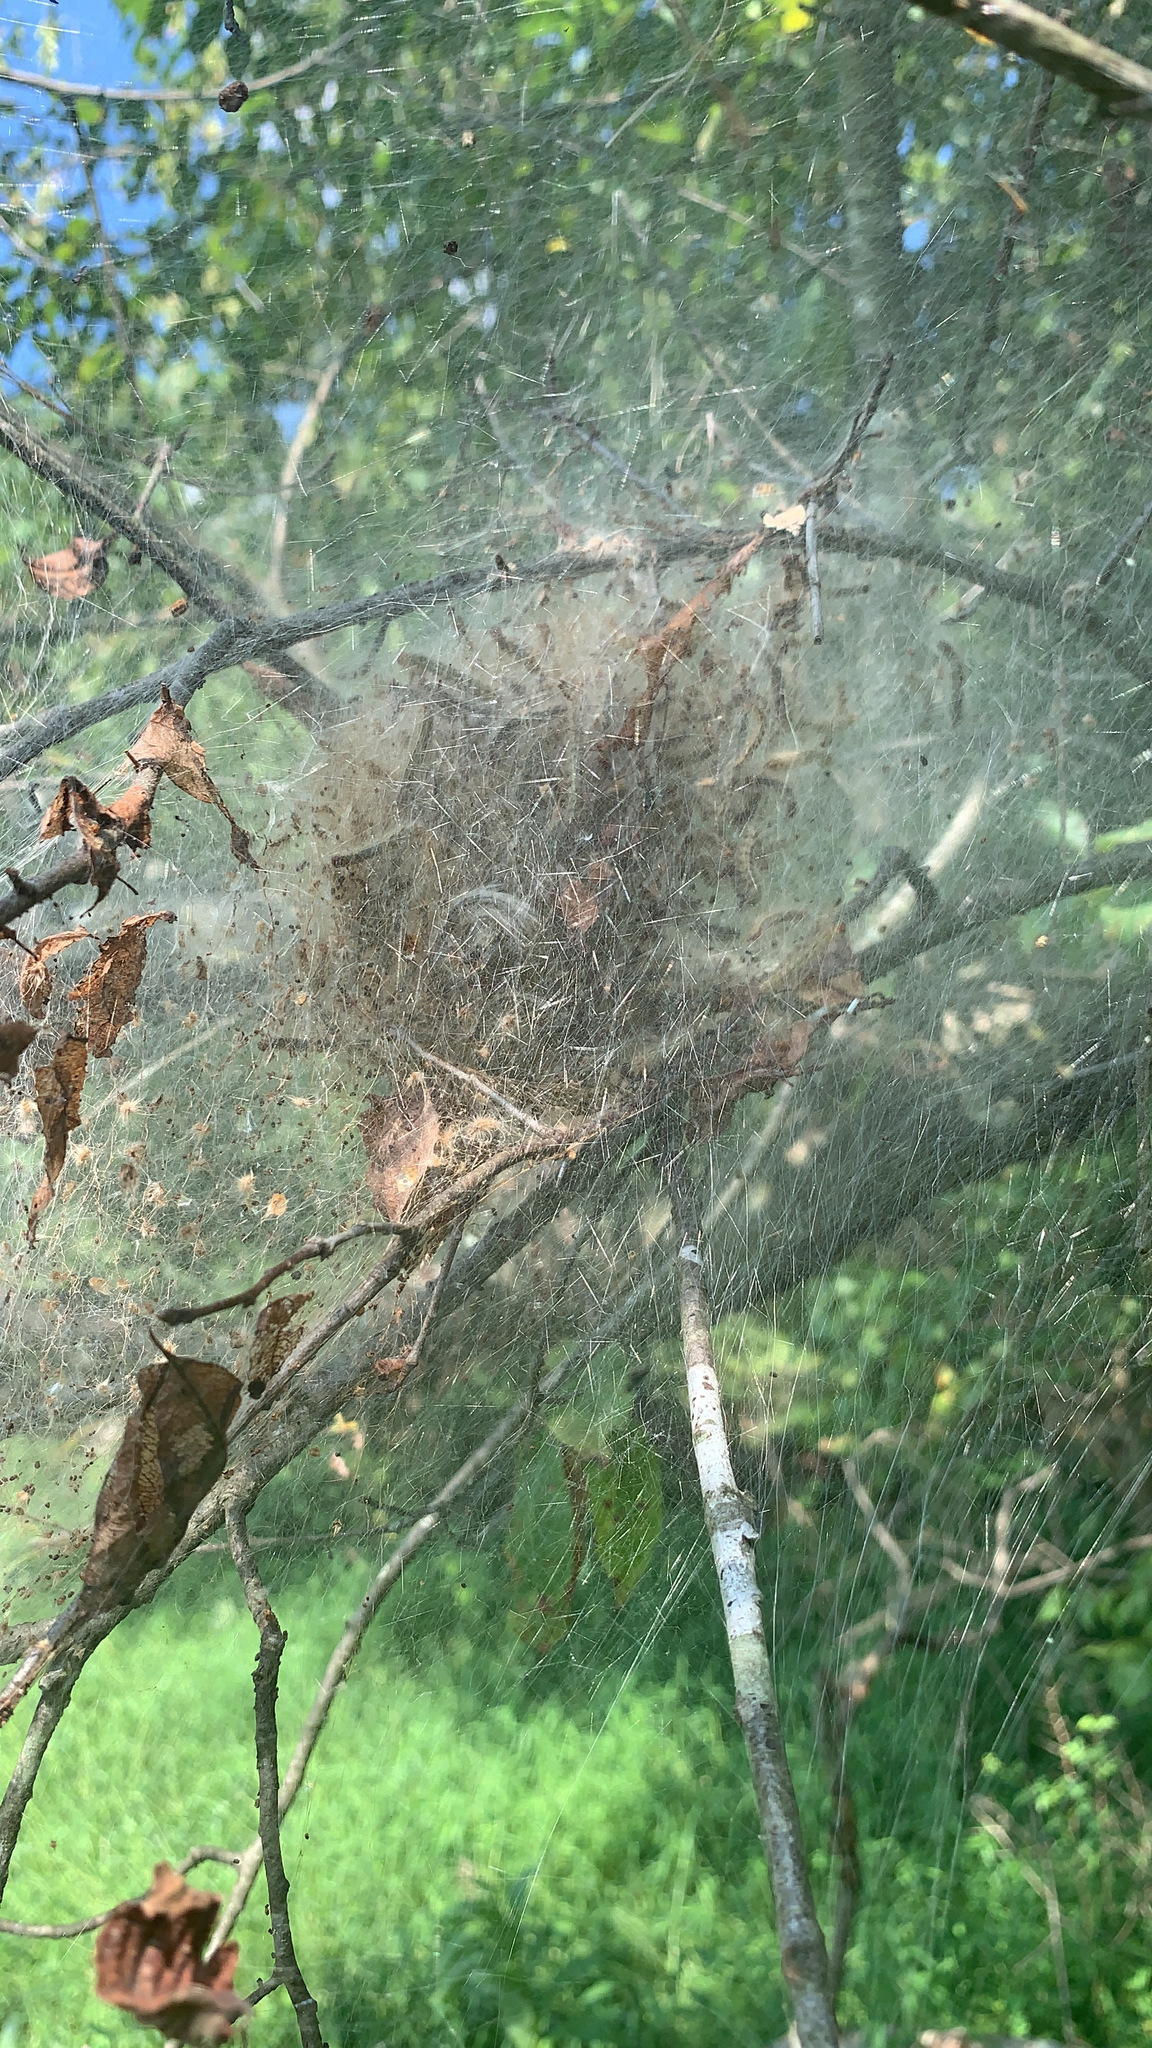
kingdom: Animalia
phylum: Arthropoda
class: Insecta
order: Lepidoptera
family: Erebidae
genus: Hyphantria
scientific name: Hyphantria cunea
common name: American white moth
